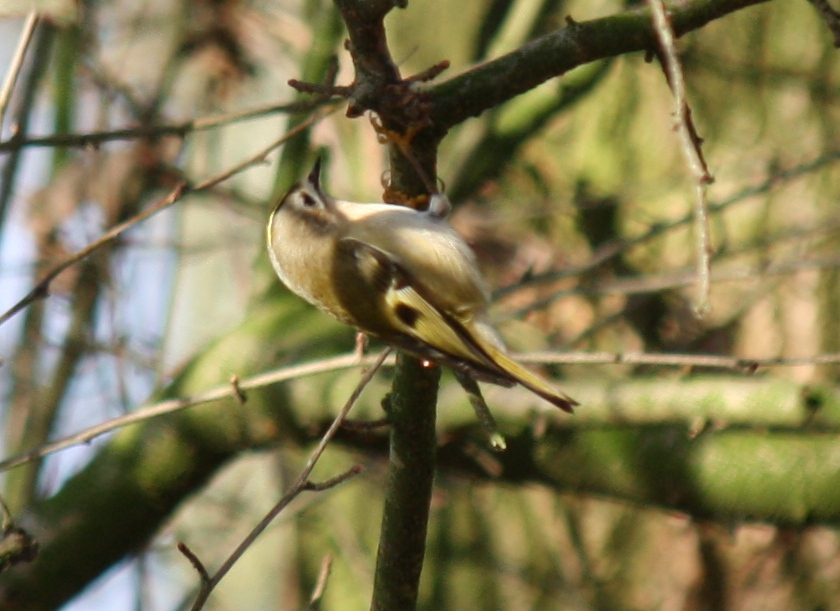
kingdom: Animalia
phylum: Chordata
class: Aves
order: Passeriformes
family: Regulidae
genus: Regulus
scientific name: Regulus regulus
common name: Goldcrest
